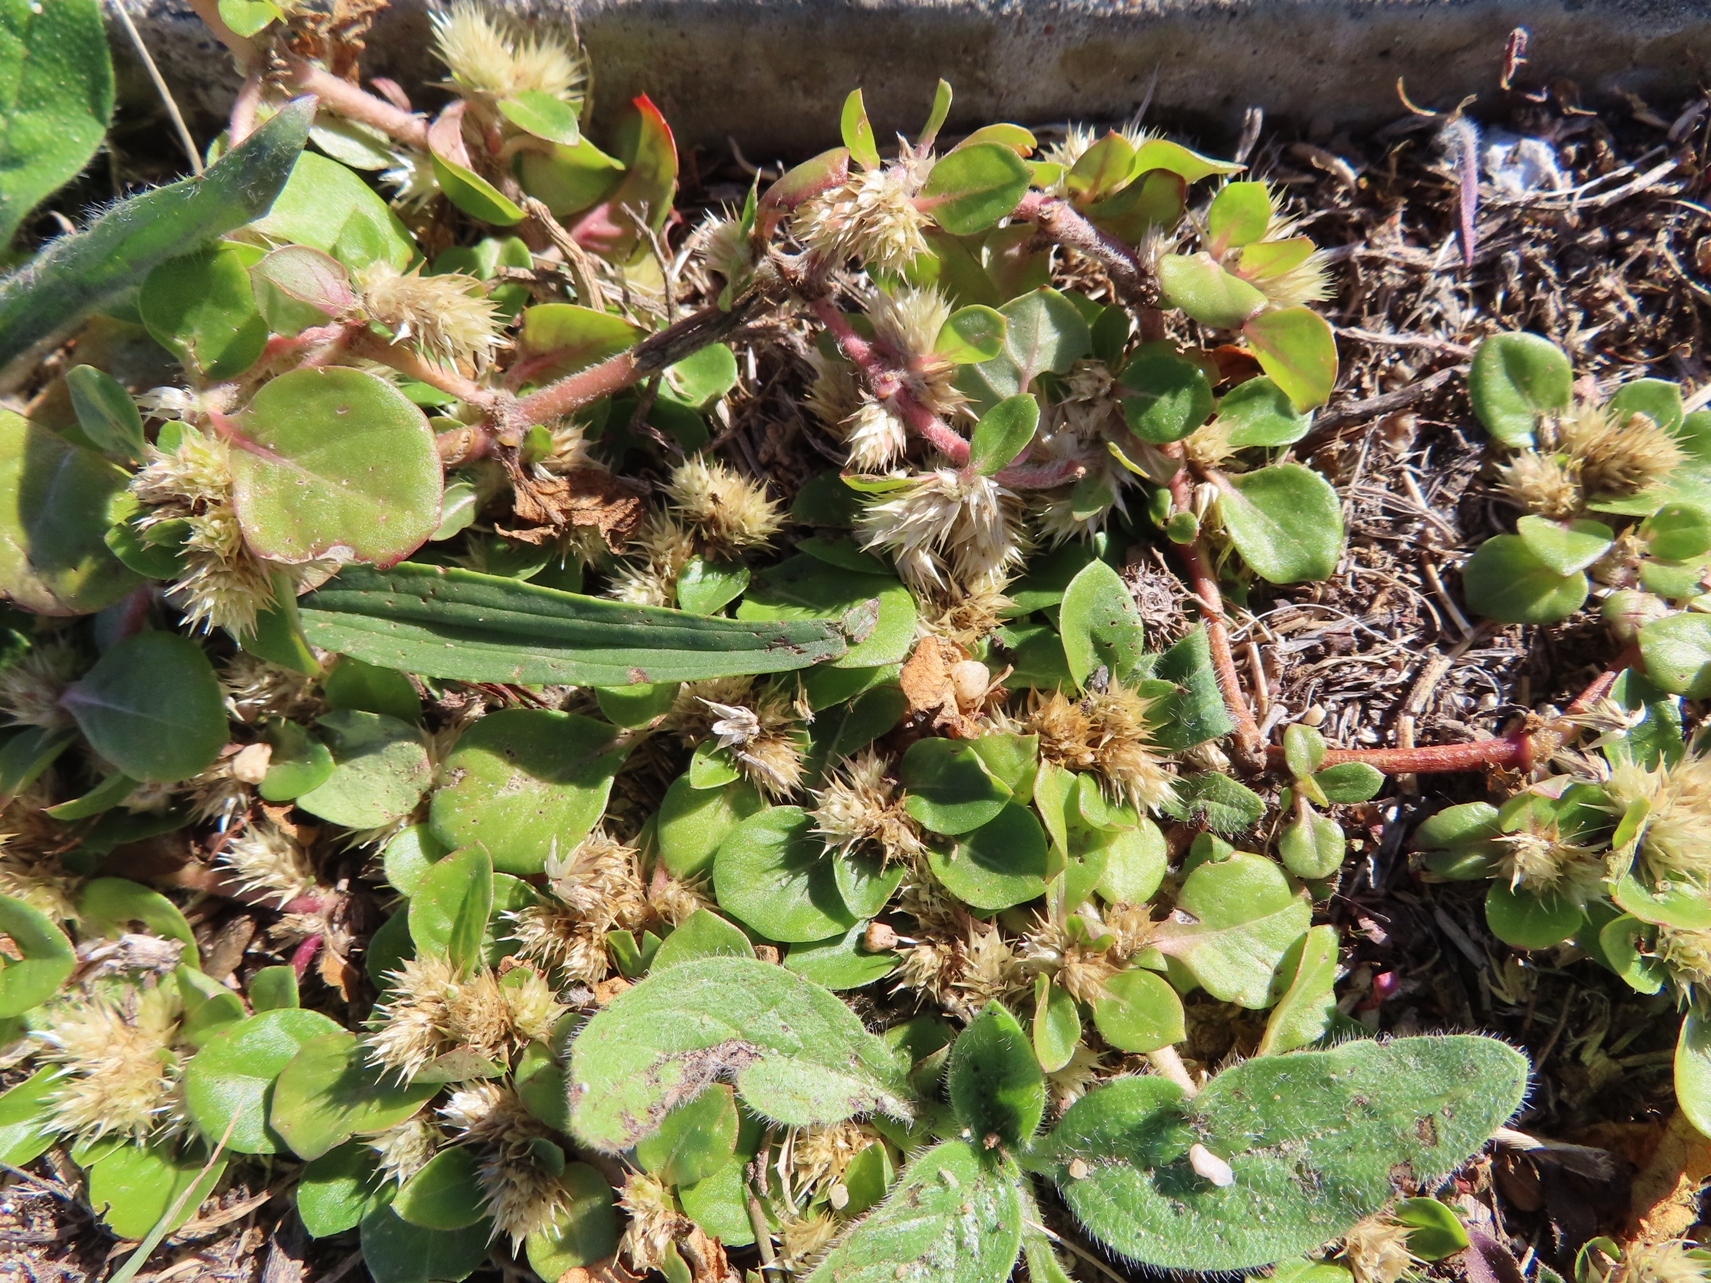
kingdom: Plantae
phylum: Tracheophyta
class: Magnoliopsida
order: Caryophyllales
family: Amaranthaceae
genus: Alternanthera
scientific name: Alternanthera pungens
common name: Khakiweed
